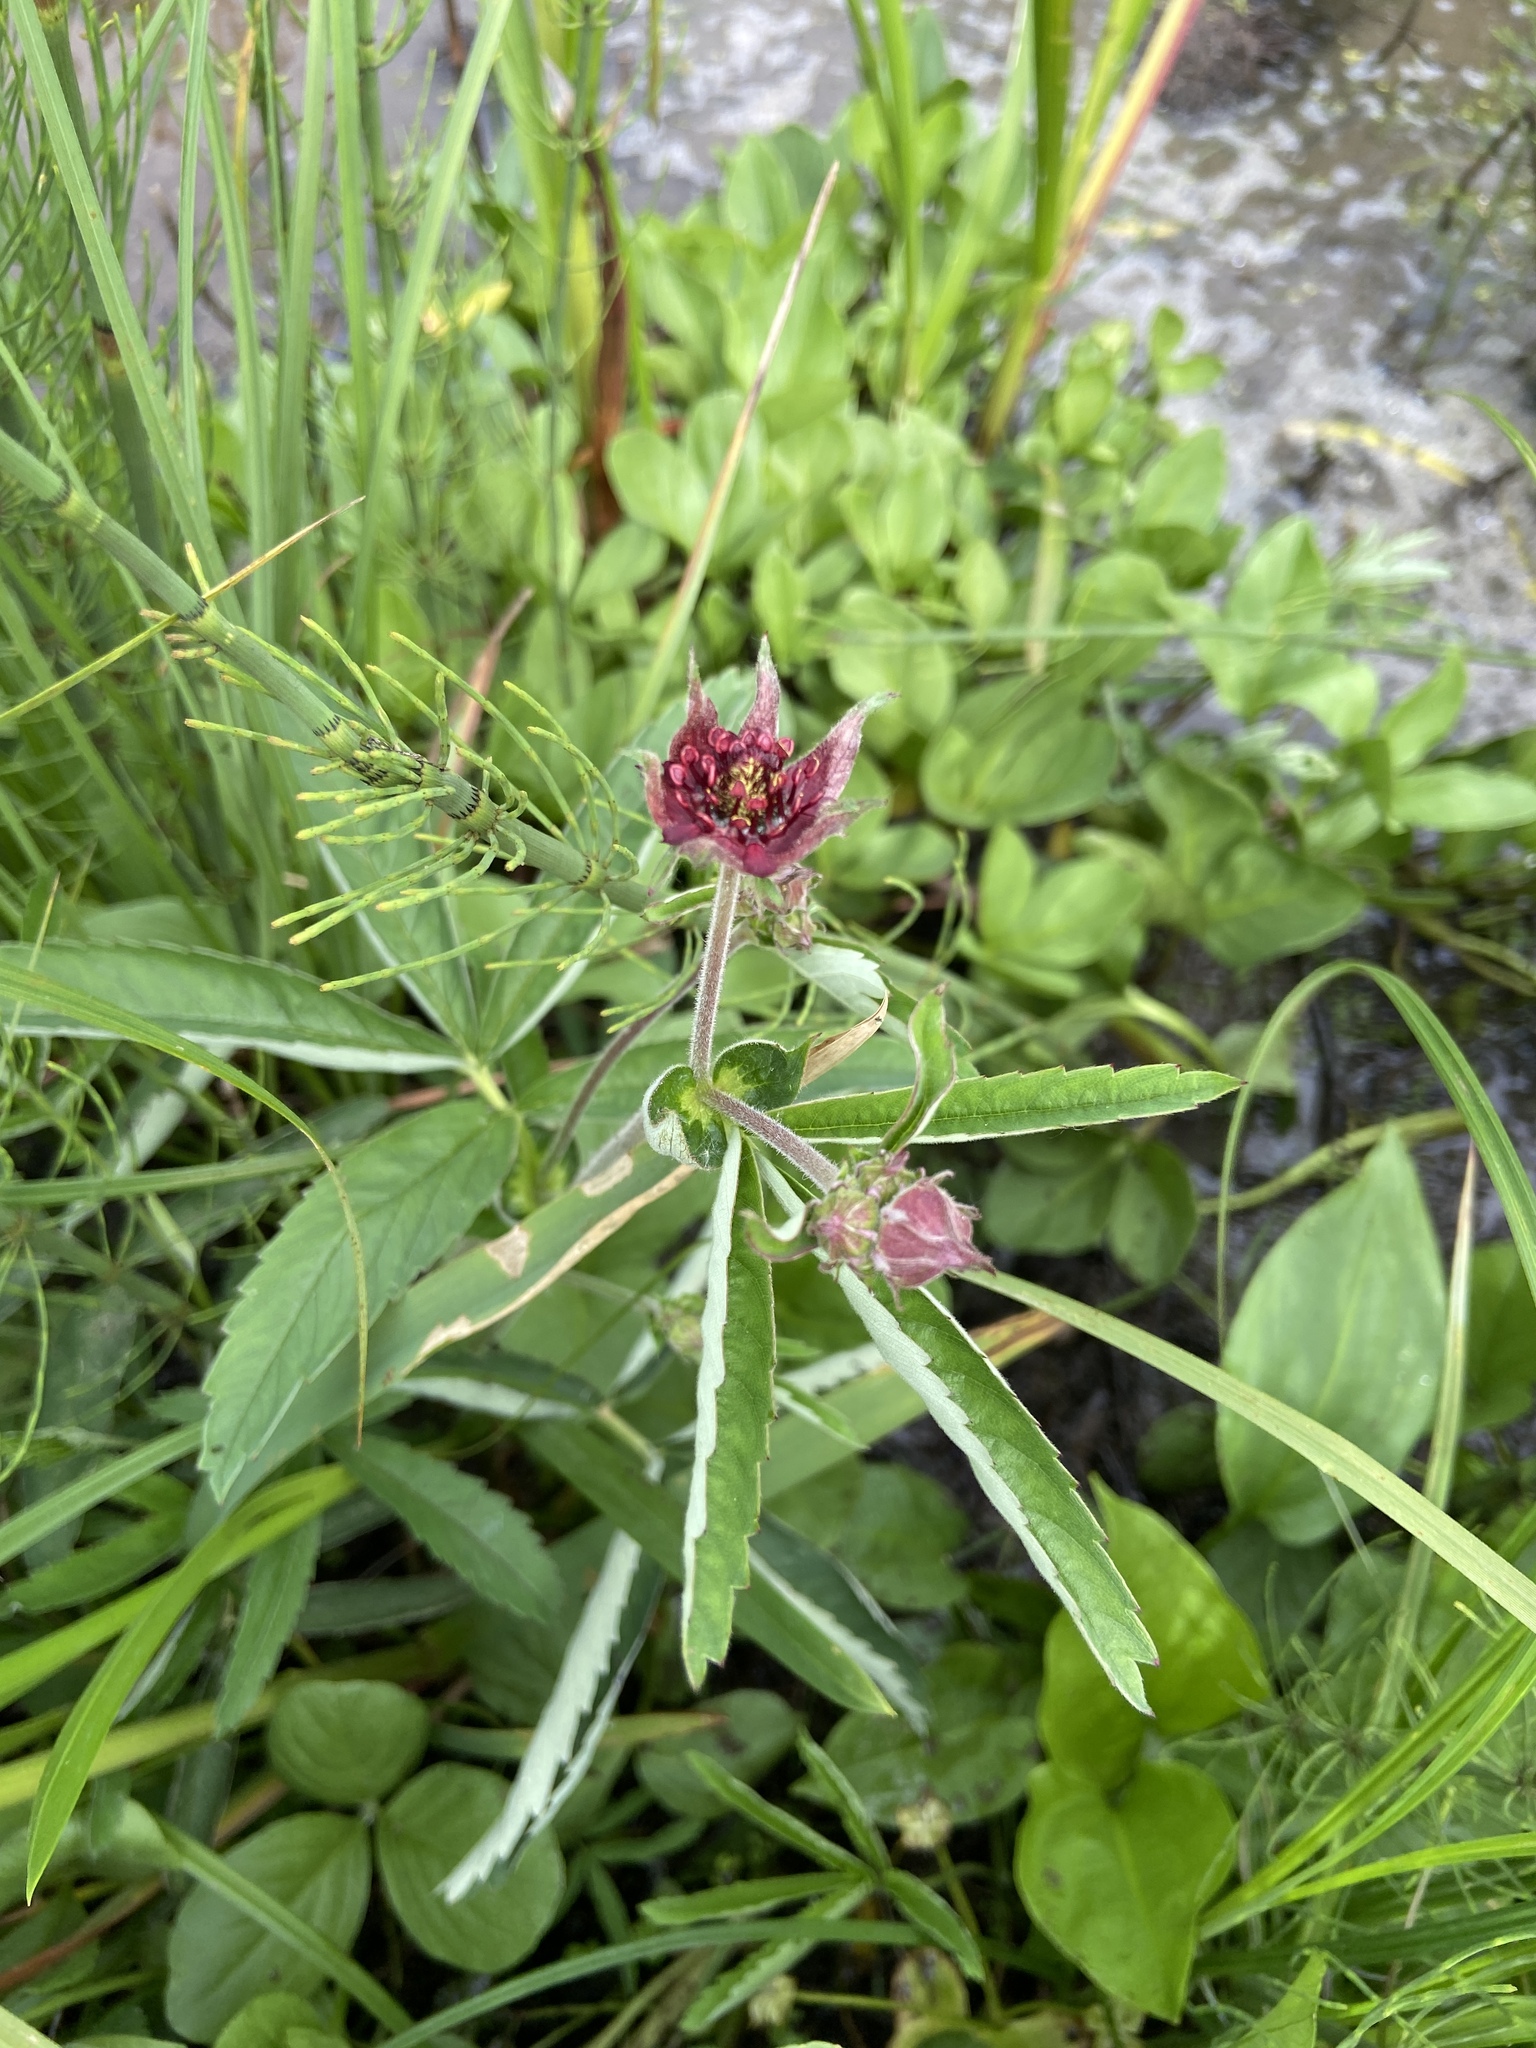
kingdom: Plantae
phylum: Tracheophyta
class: Magnoliopsida
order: Rosales
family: Rosaceae
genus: Comarum
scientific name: Comarum palustre
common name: Marsh cinquefoil
